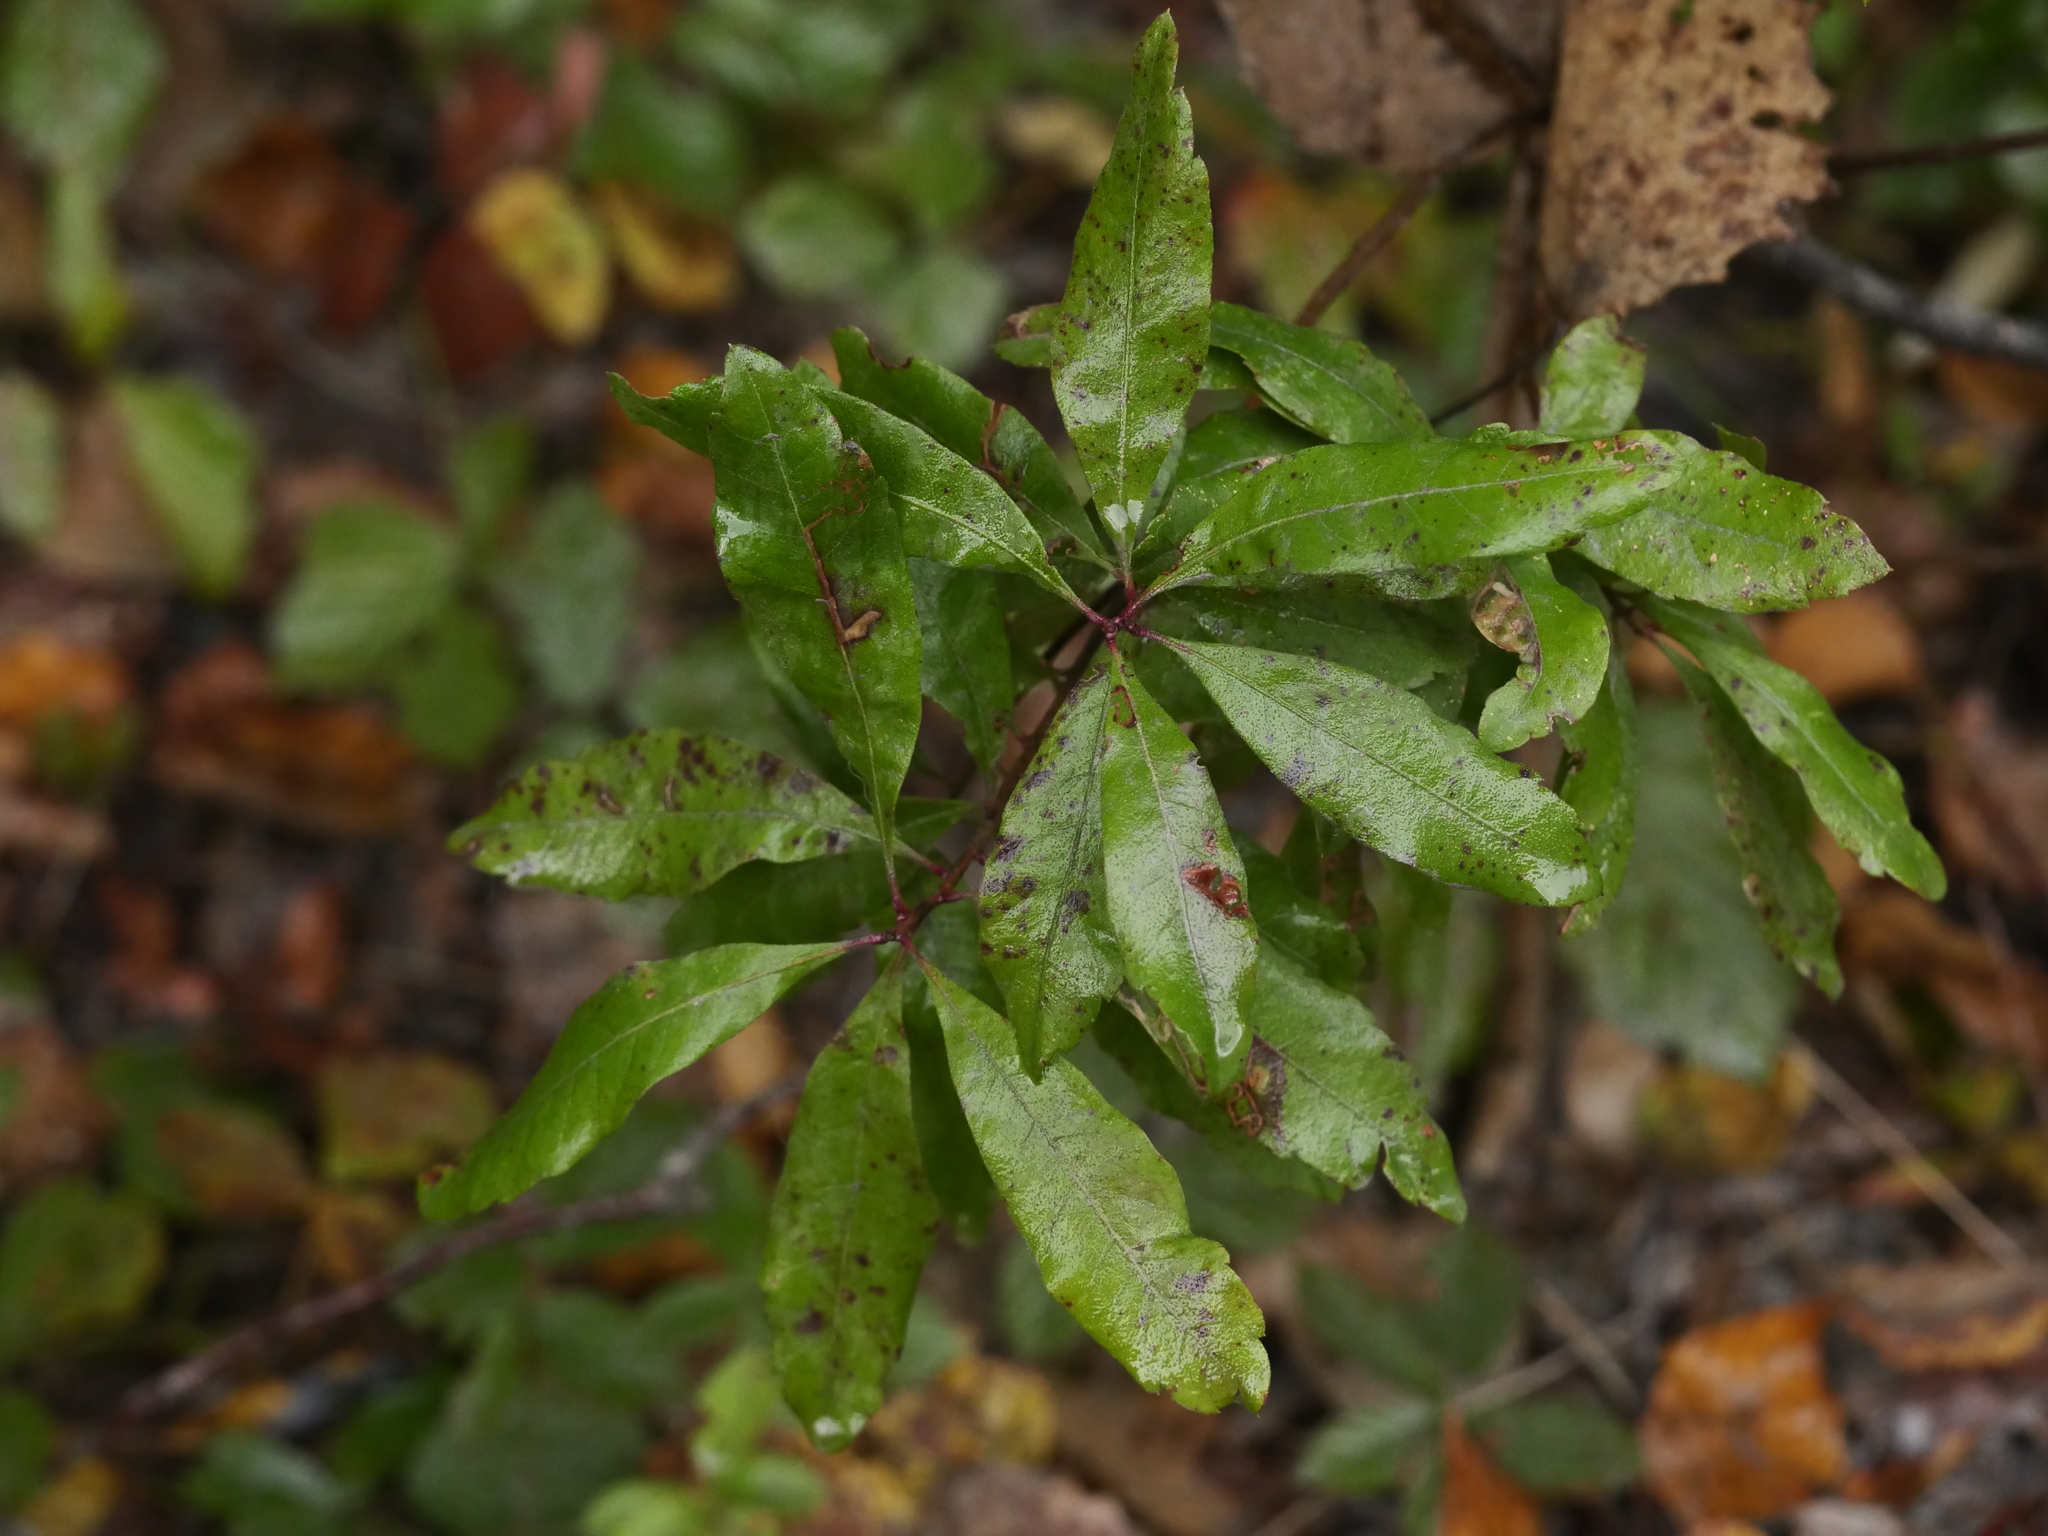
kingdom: Plantae
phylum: Tracheophyta
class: Magnoliopsida
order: Fagales
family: Myricaceae
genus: Morella
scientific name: Morella pensylvanica
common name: Northern bayberry
